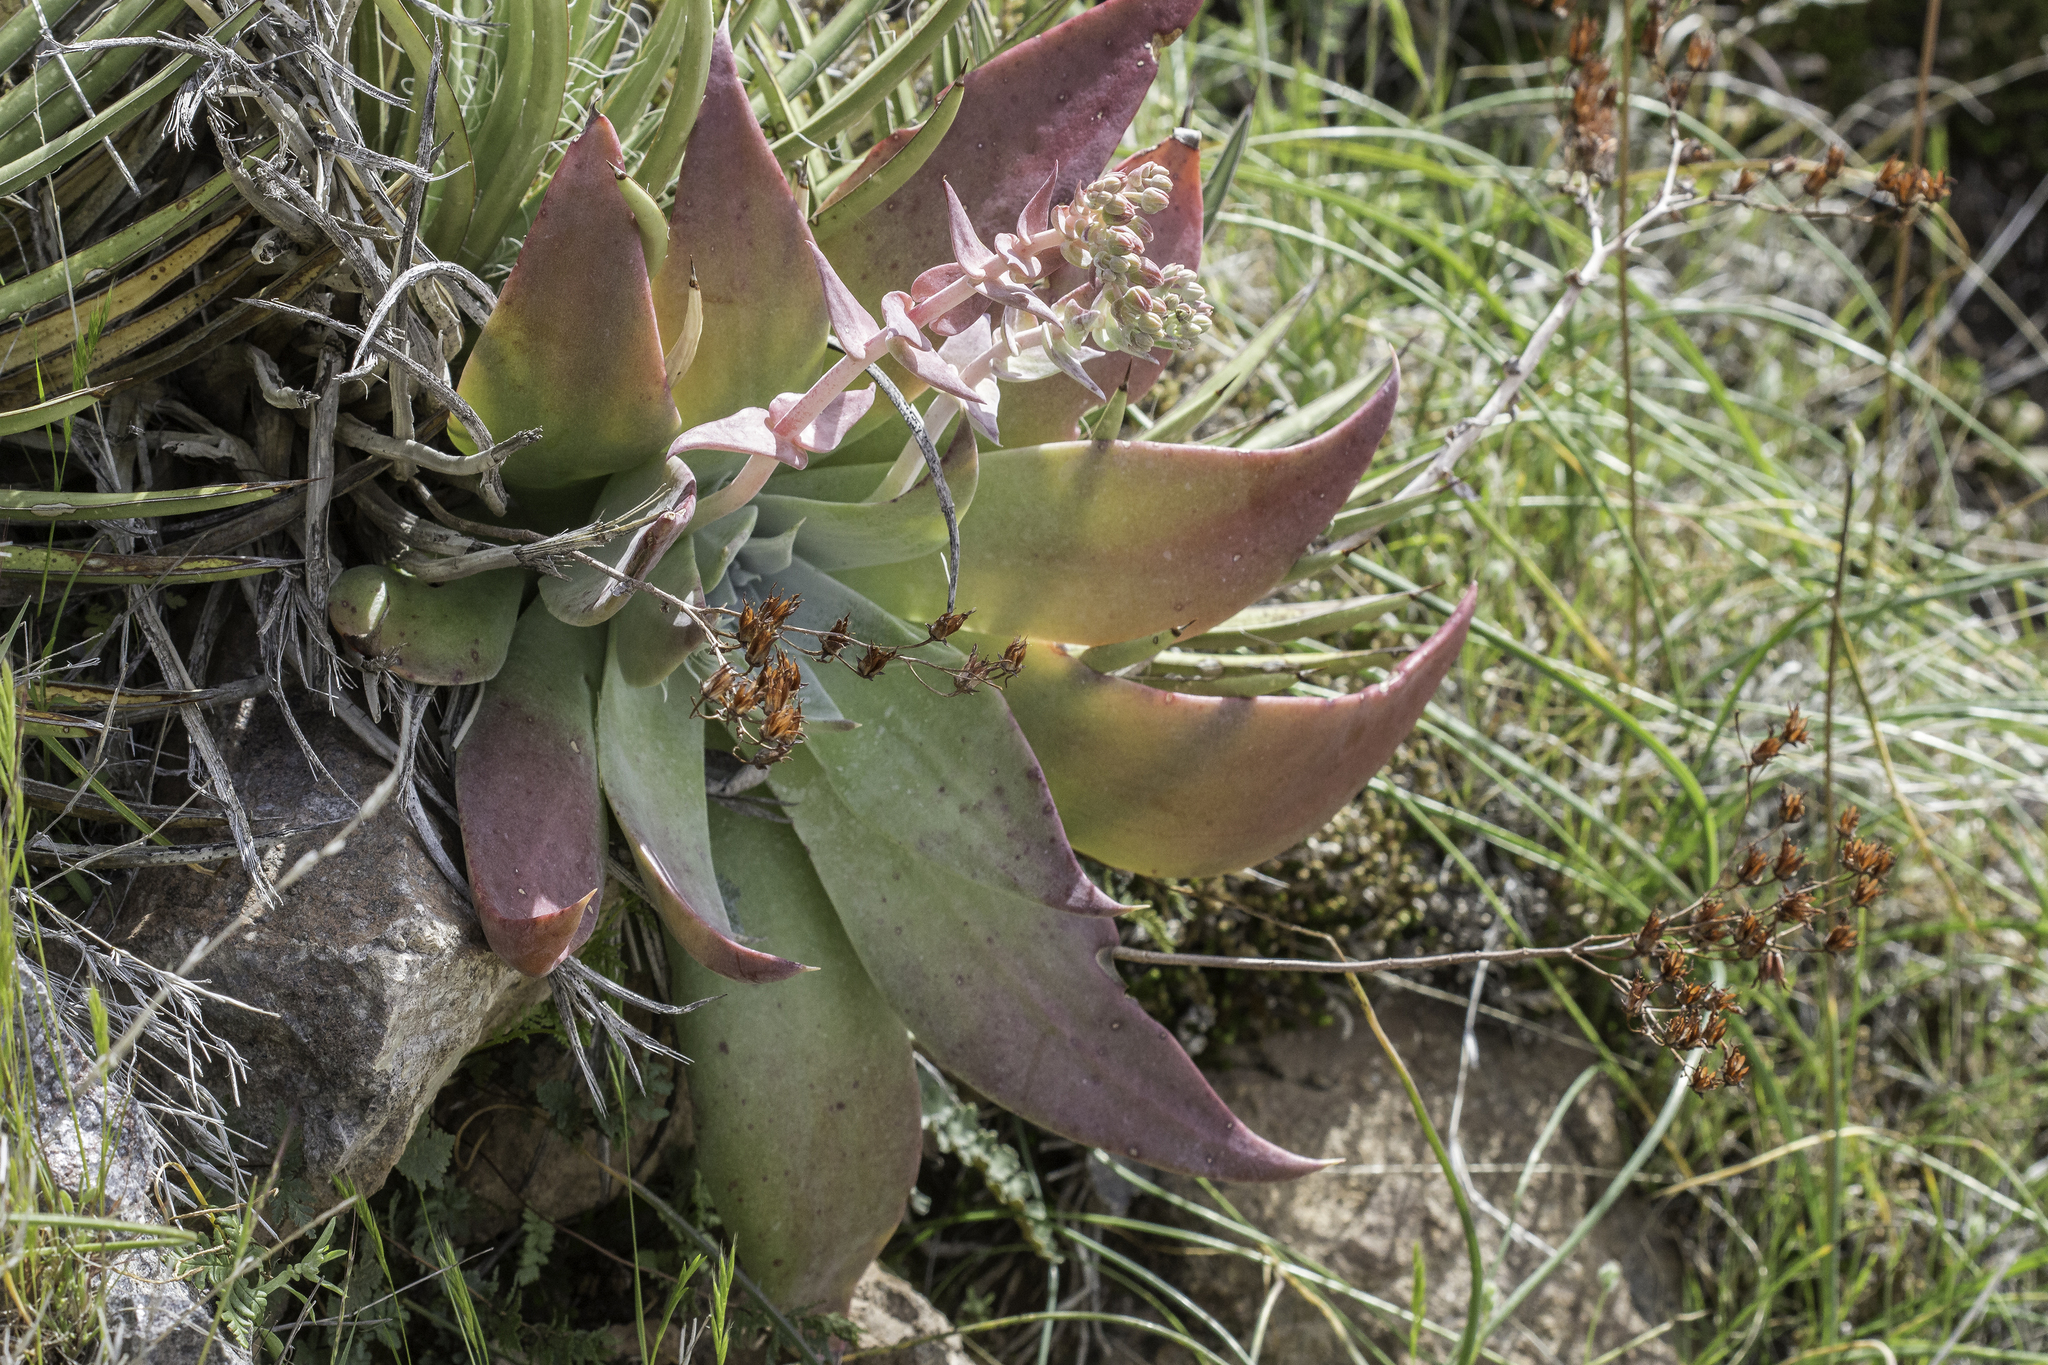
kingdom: Plantae
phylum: Tracheophyta
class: Magnoliopsida
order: Saxifragales
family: Crassulaceae
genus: Dudleya
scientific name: Dudleya arizonica
